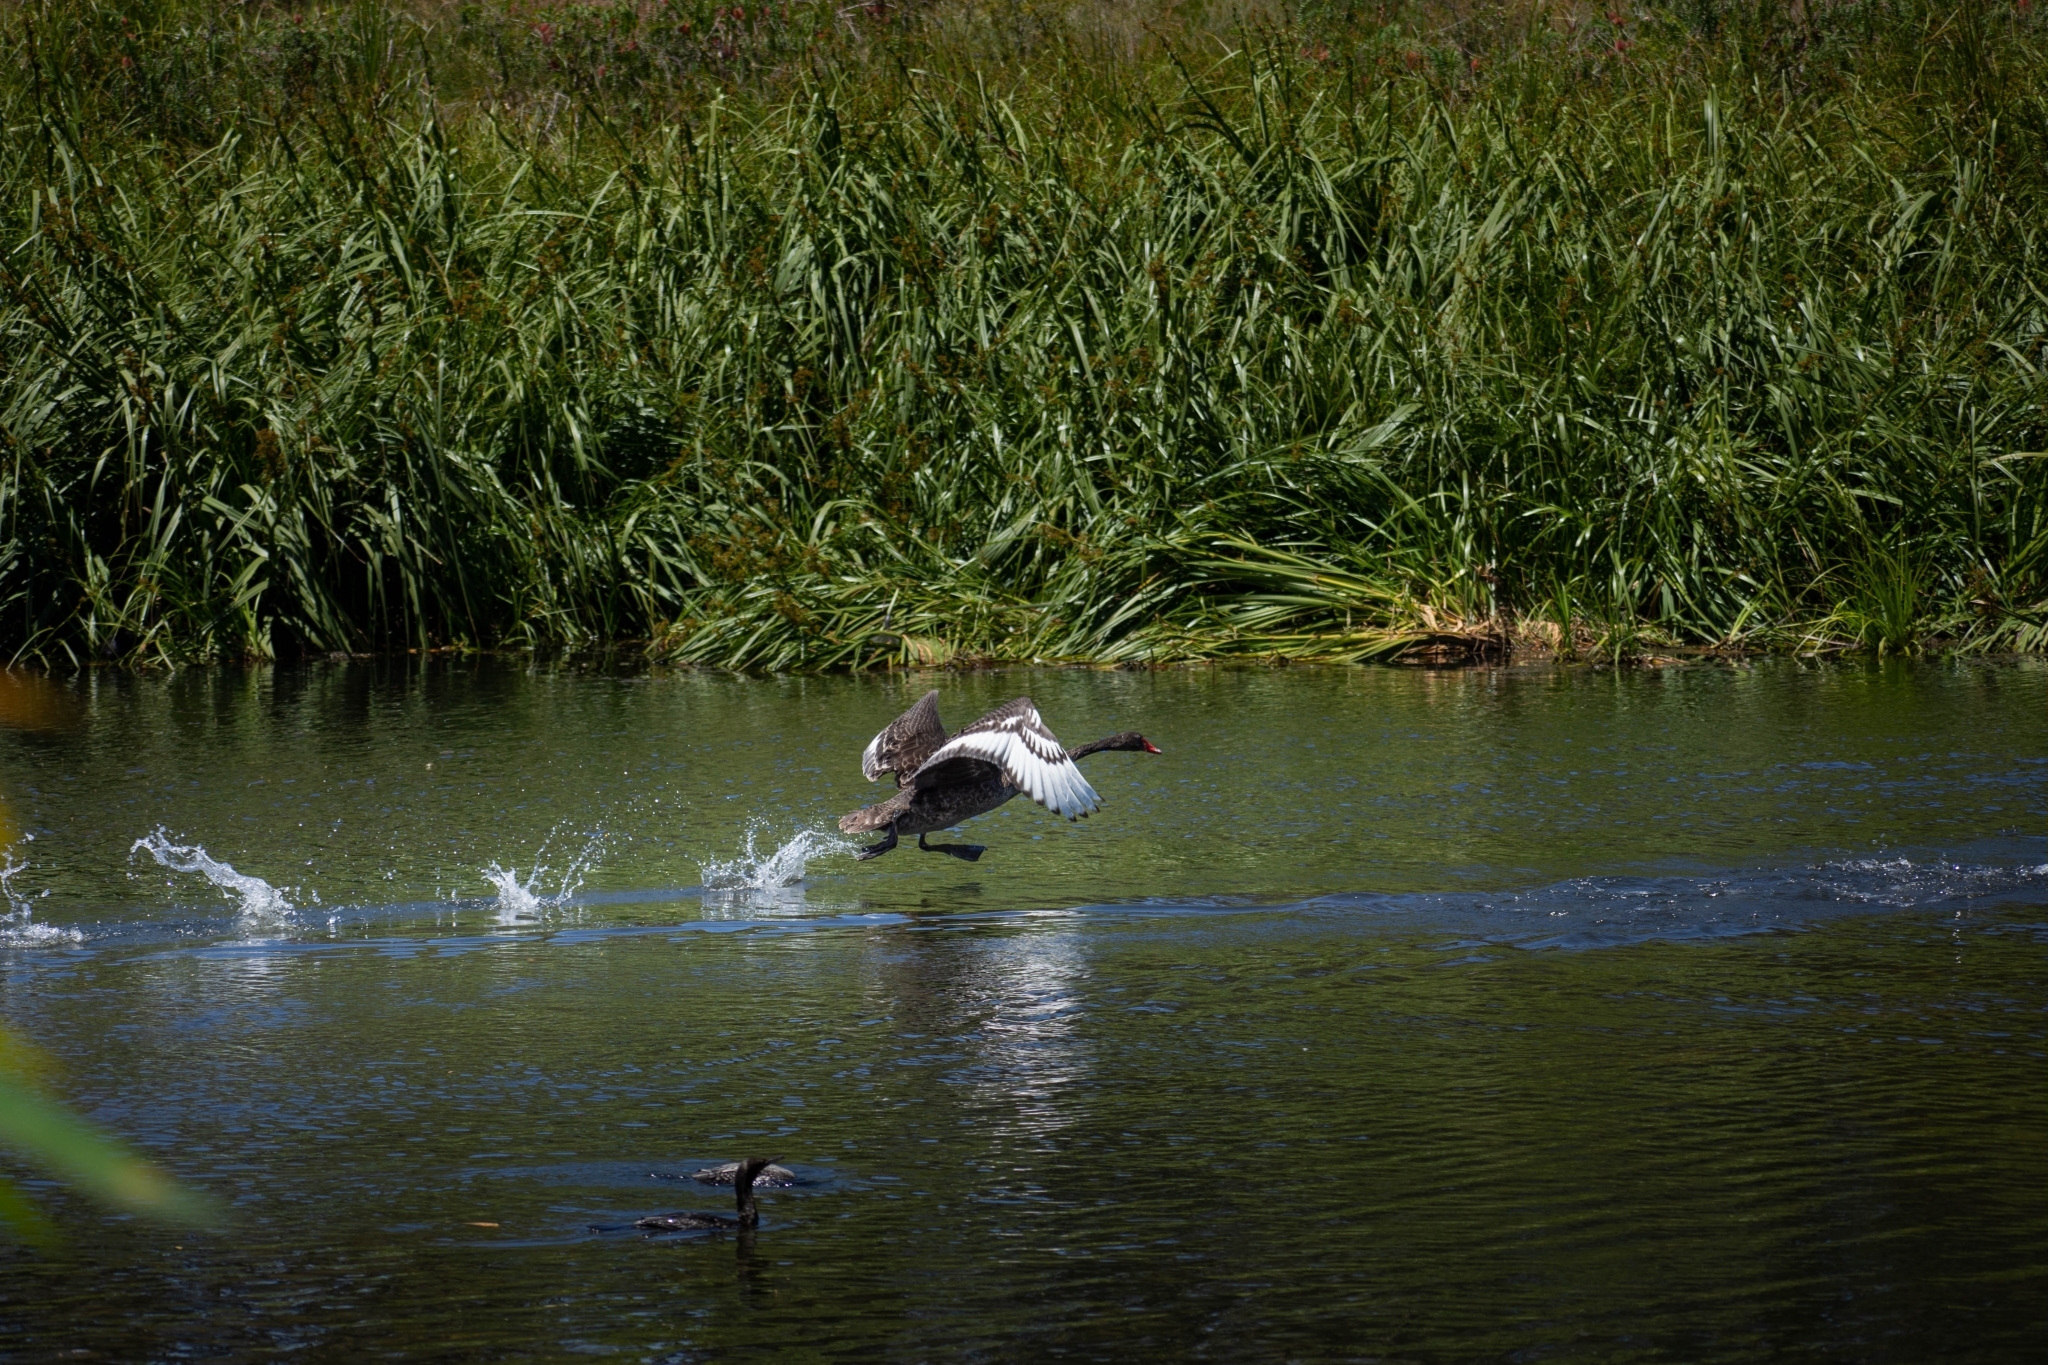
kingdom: Animalia
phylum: Chordata
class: Aves
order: Anseriformes
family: Anatidae
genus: Cygnus
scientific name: Cygnus atratus
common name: Black swan
